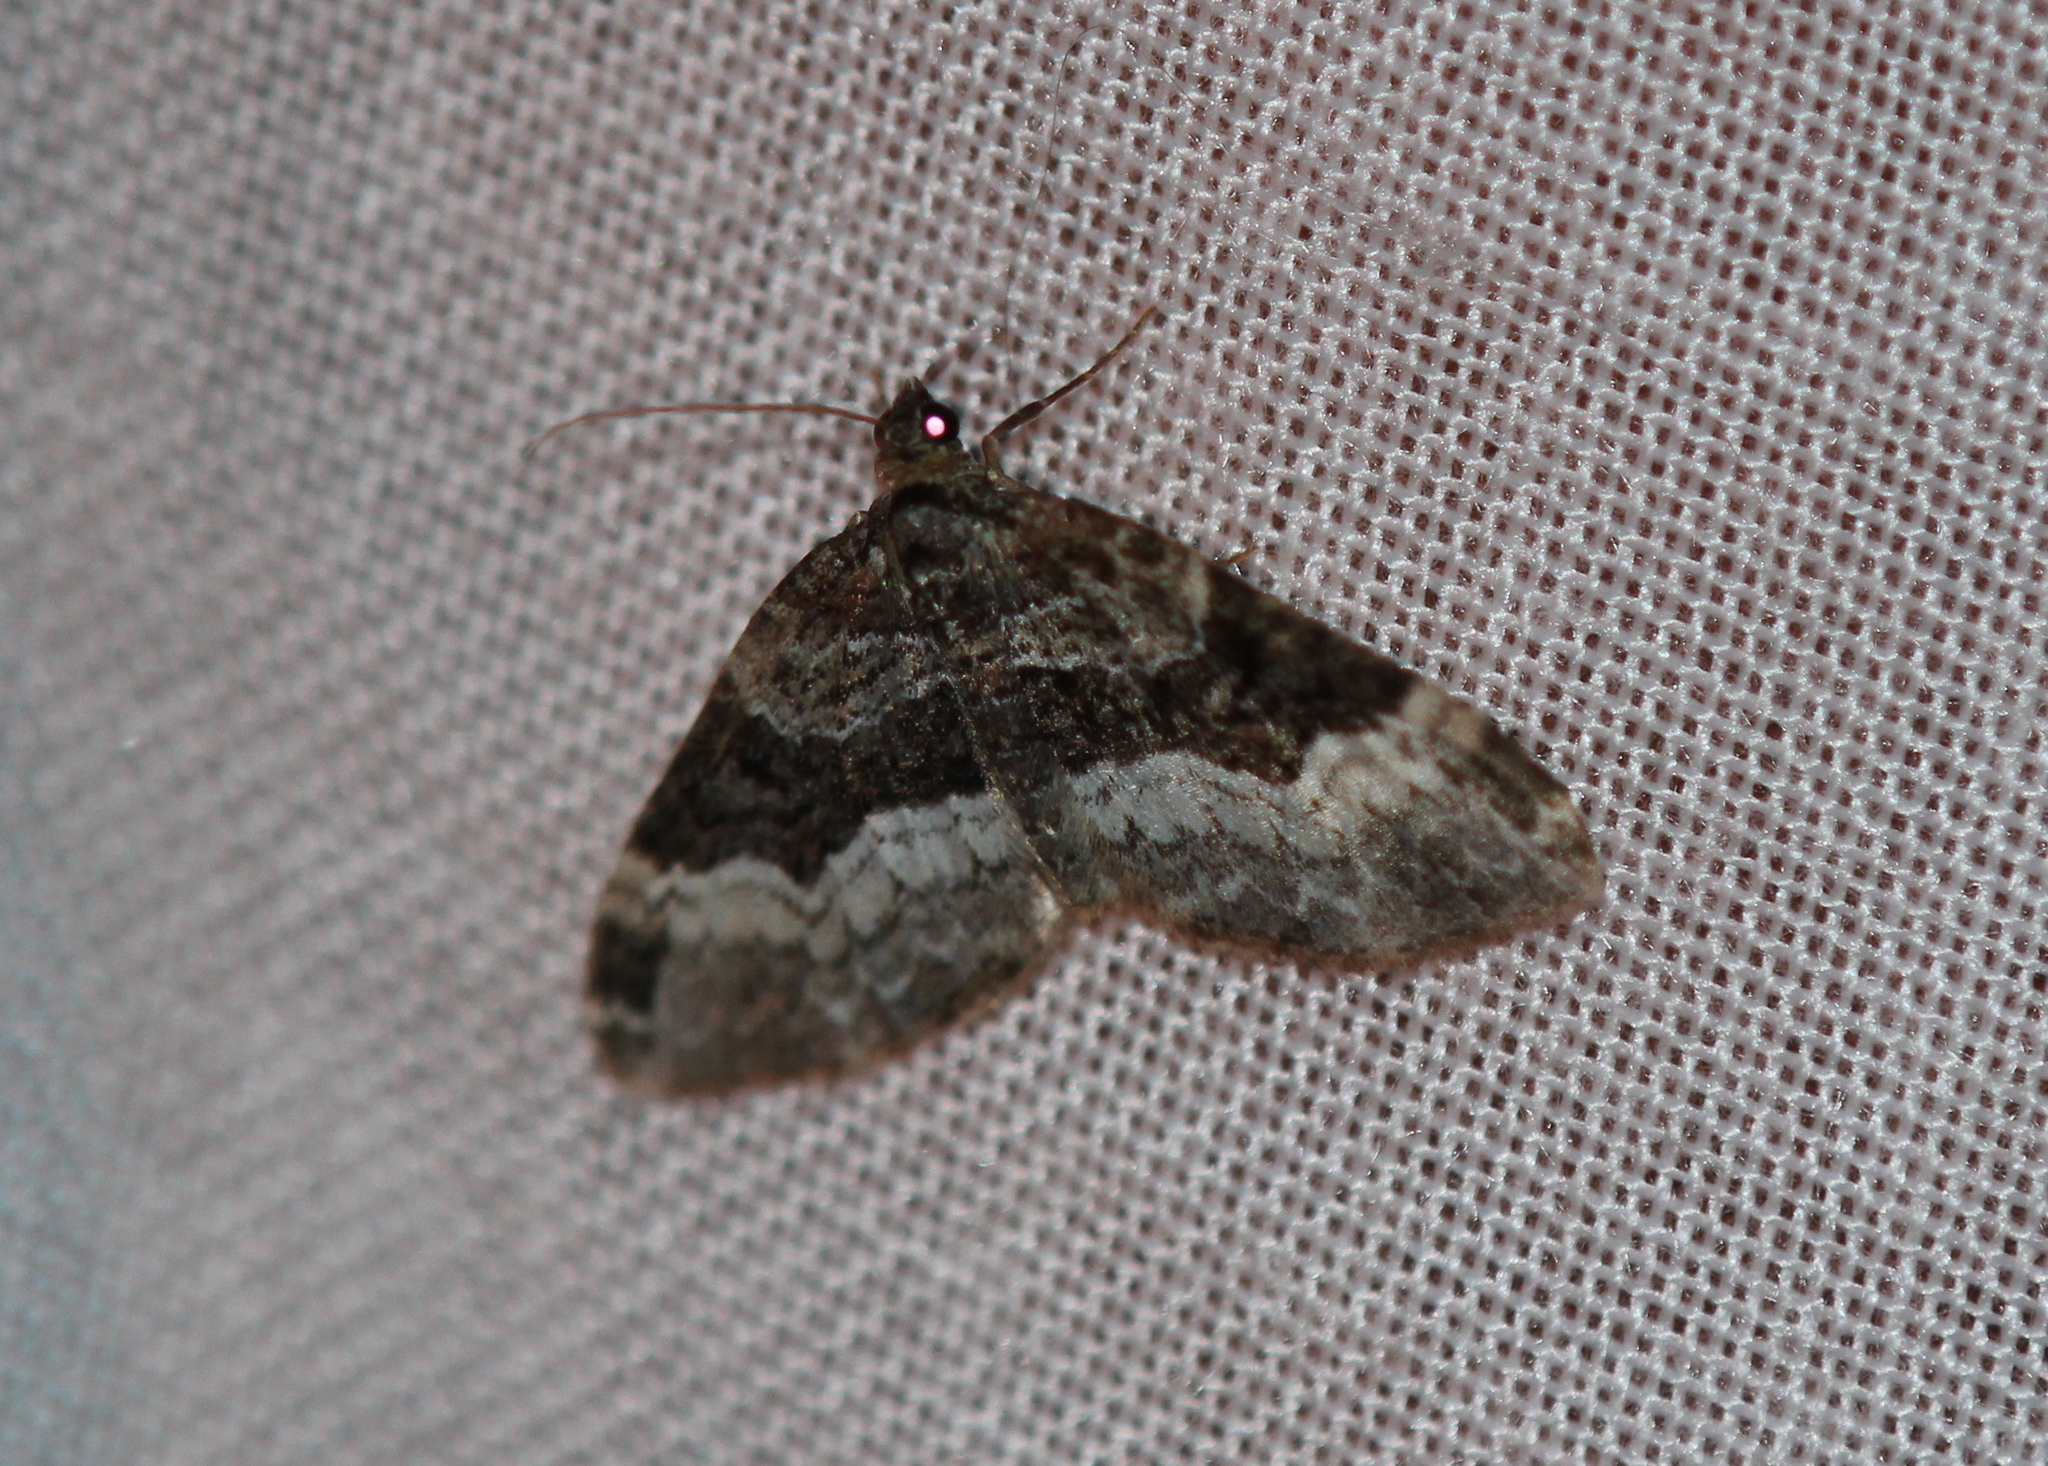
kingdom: Animalia
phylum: Arthropoda
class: Insecta
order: Lepidoptera
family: Geometridae
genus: Euphyia
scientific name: Euphyia intermediata
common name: Sharp-angled carpet
